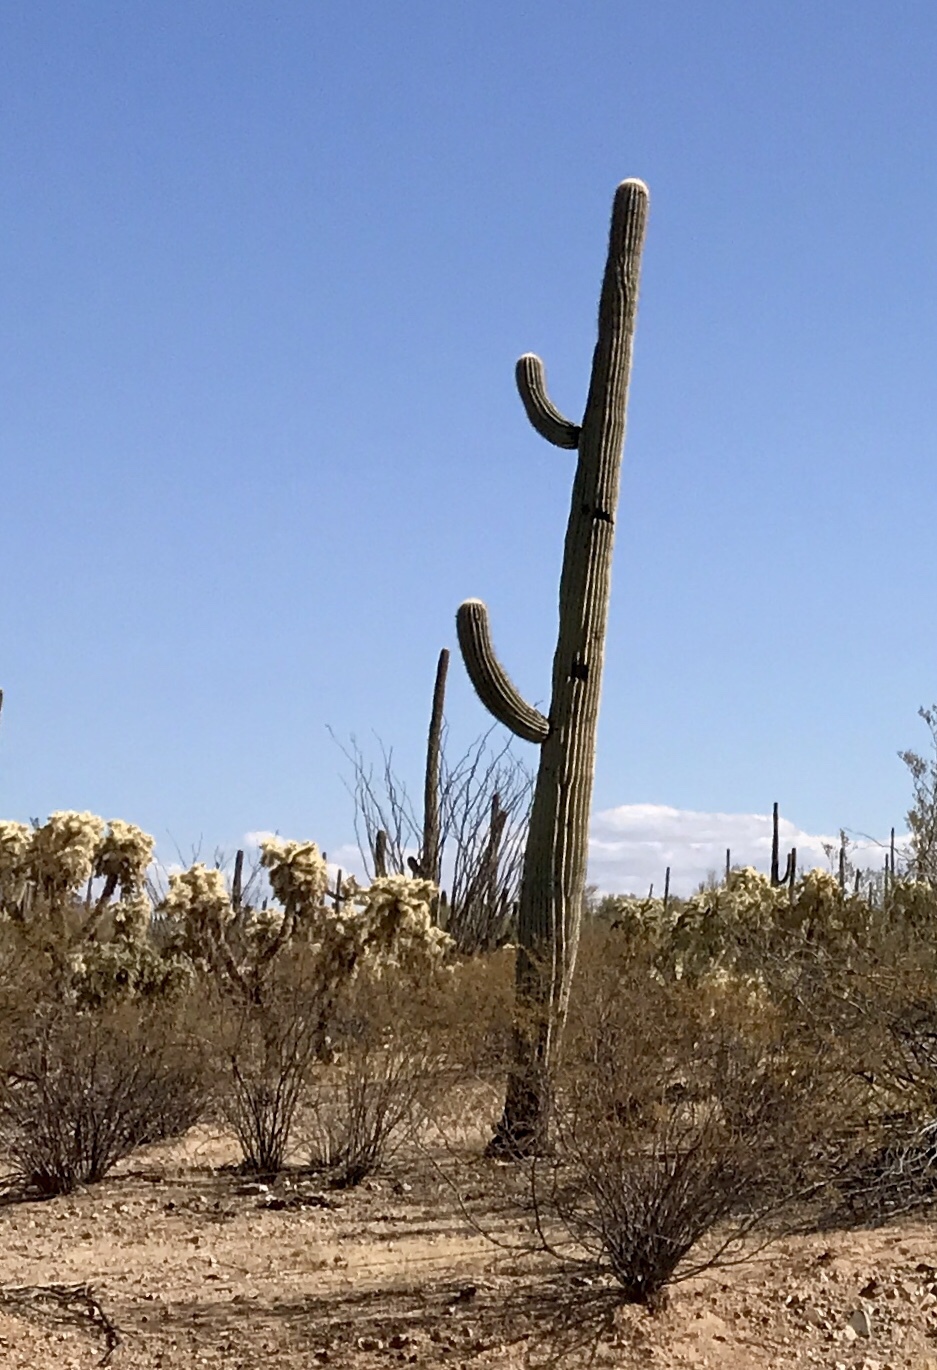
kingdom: Plantae
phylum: Tracheophyta
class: Magnoliopsida
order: Caryophyllales
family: Cactaceae
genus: Carnegiea
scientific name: Carnegiea gigantea
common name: Saguaro
